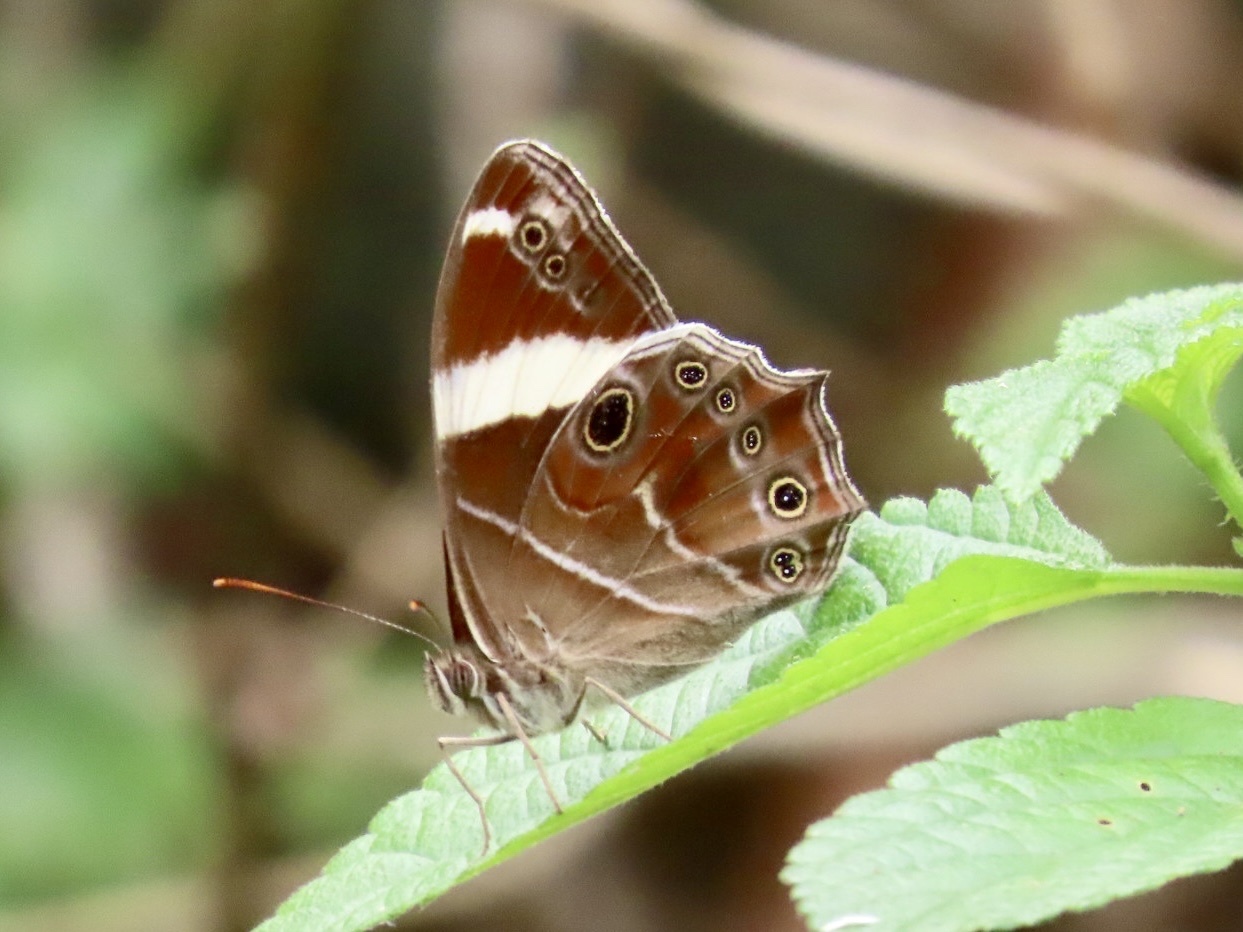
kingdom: Animalia
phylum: Arthropoda
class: Insecta
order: Lepidoptera
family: Nymphalidae
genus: Lethe
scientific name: Lethe confusa
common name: Banded treebrown
